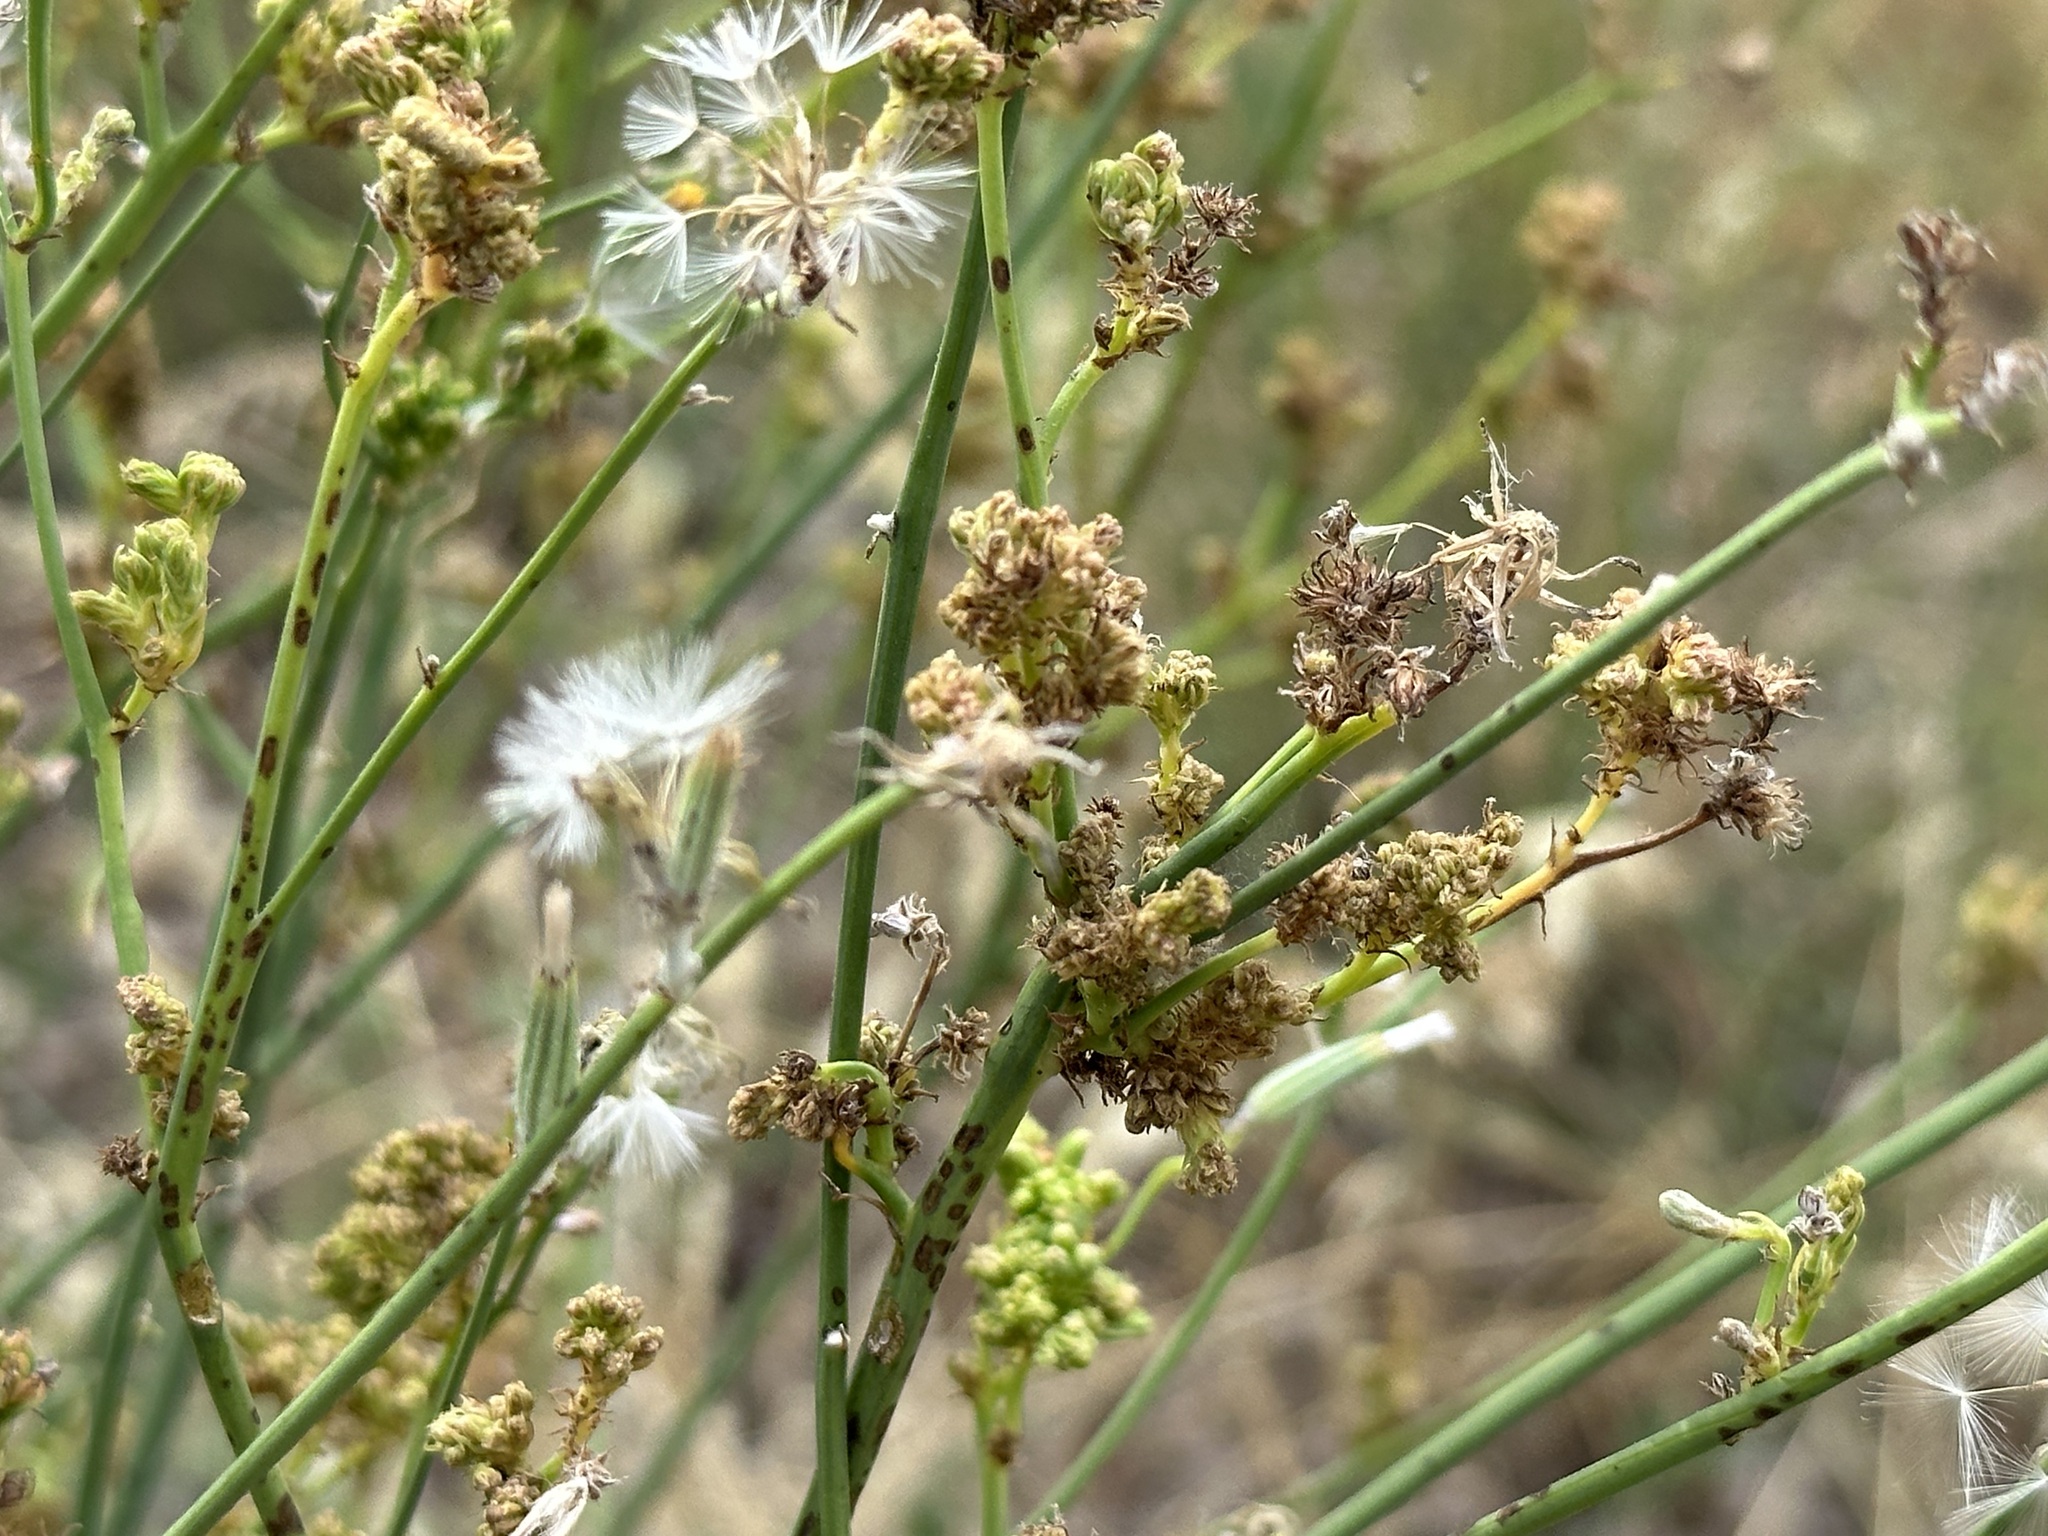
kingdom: Plantae
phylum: Tracheophyta
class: Magnoliopsida
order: Asterales
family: Asteraceae
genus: Chondrilla
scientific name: Chondrilla juncea
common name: Skeleton weed
